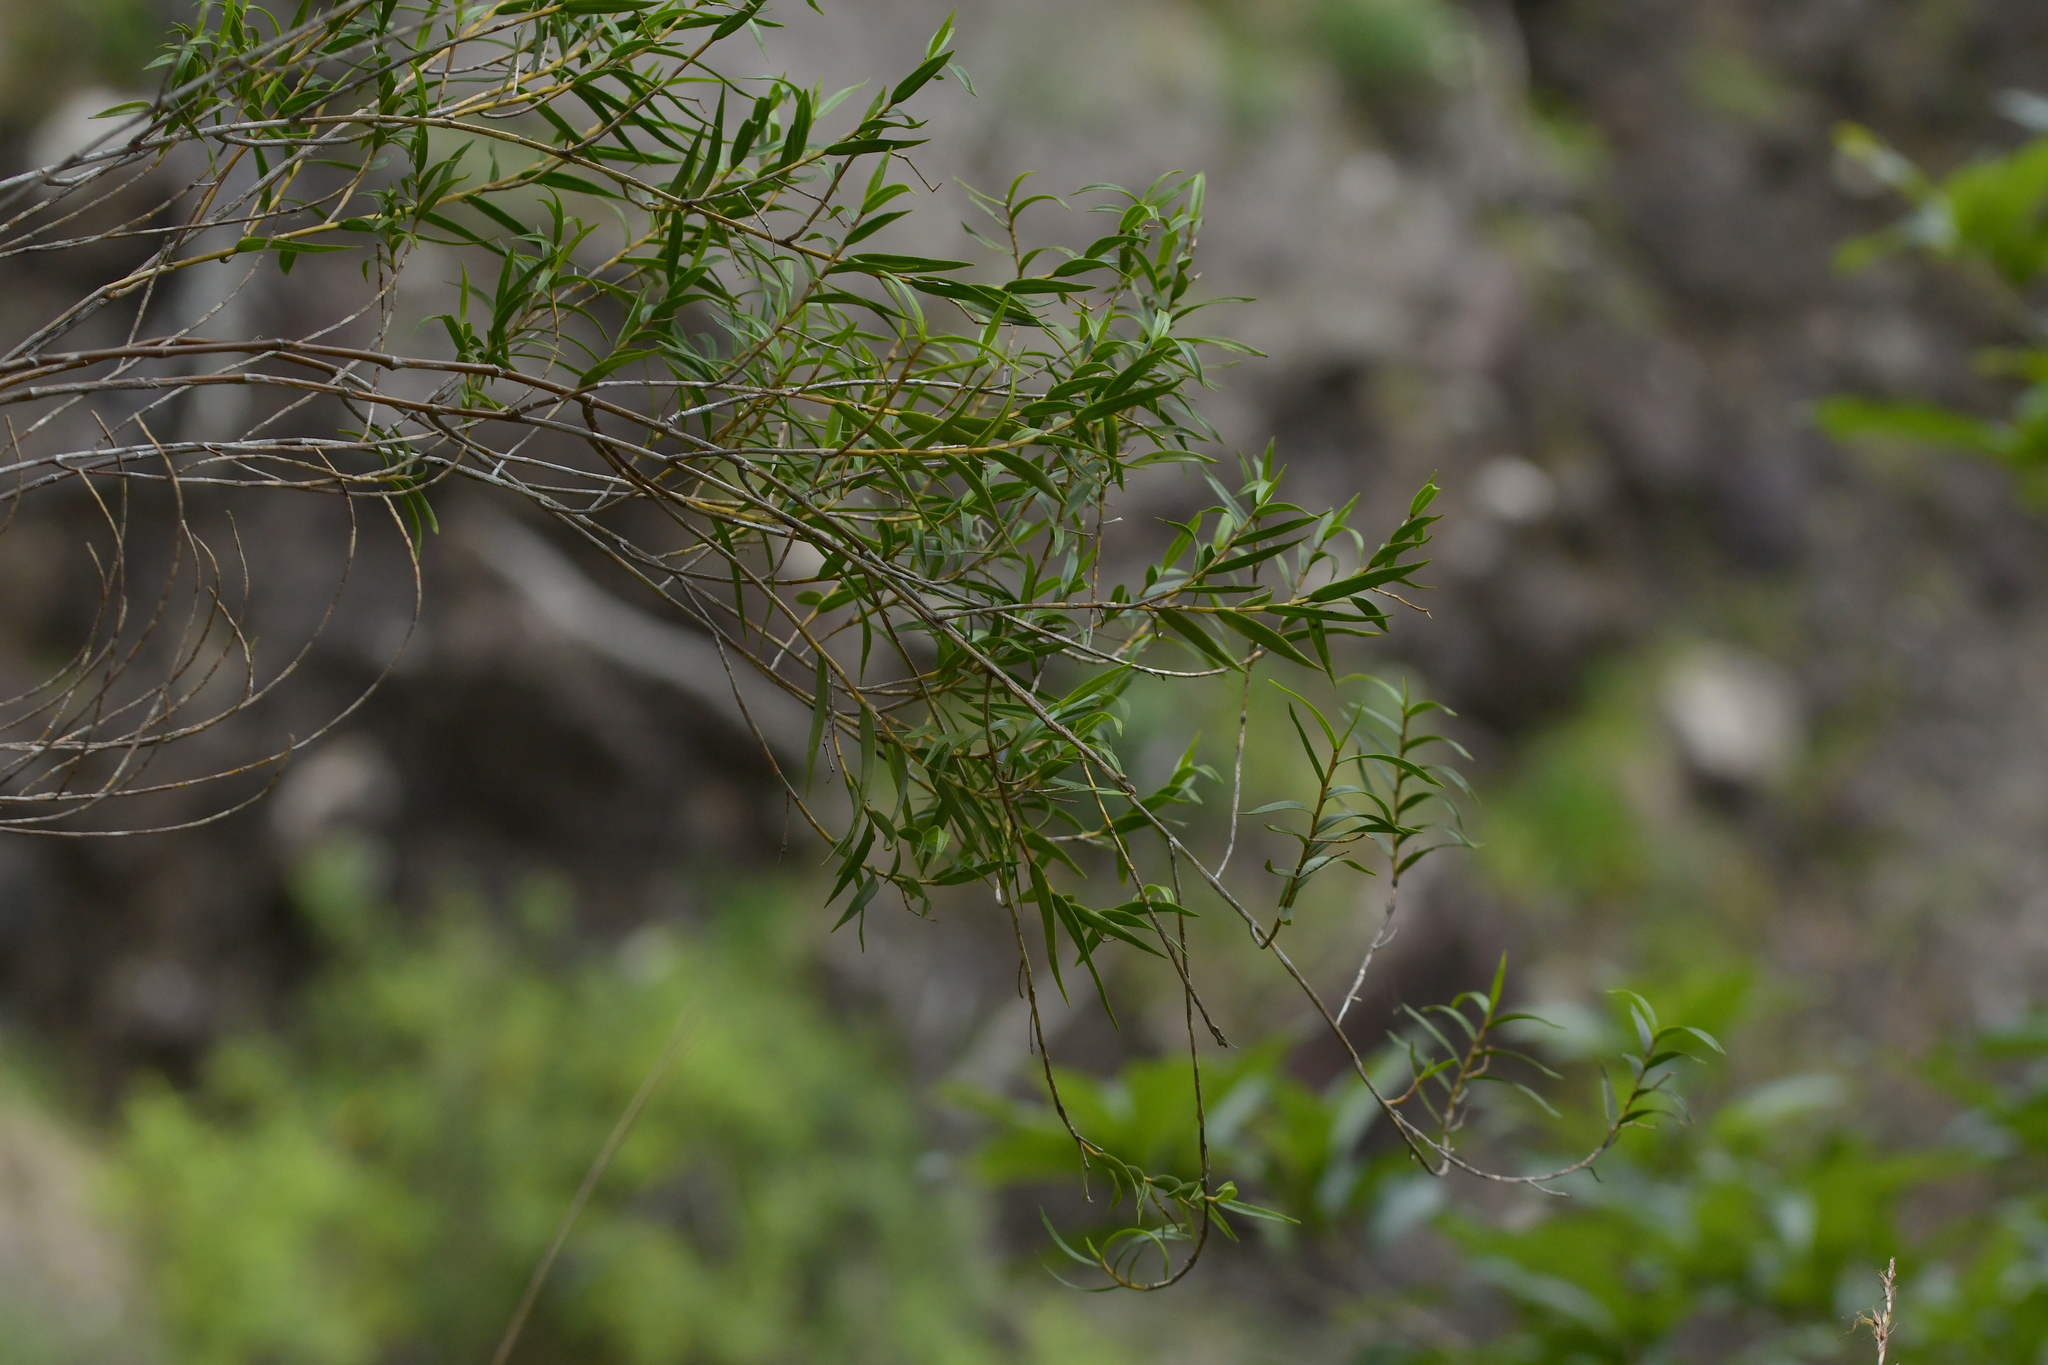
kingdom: Plantae
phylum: Tracheophyta
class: Liliopsida
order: Asparagales
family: Orchidaceae
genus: Dendrobium
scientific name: Dendrobium cunninghamii
